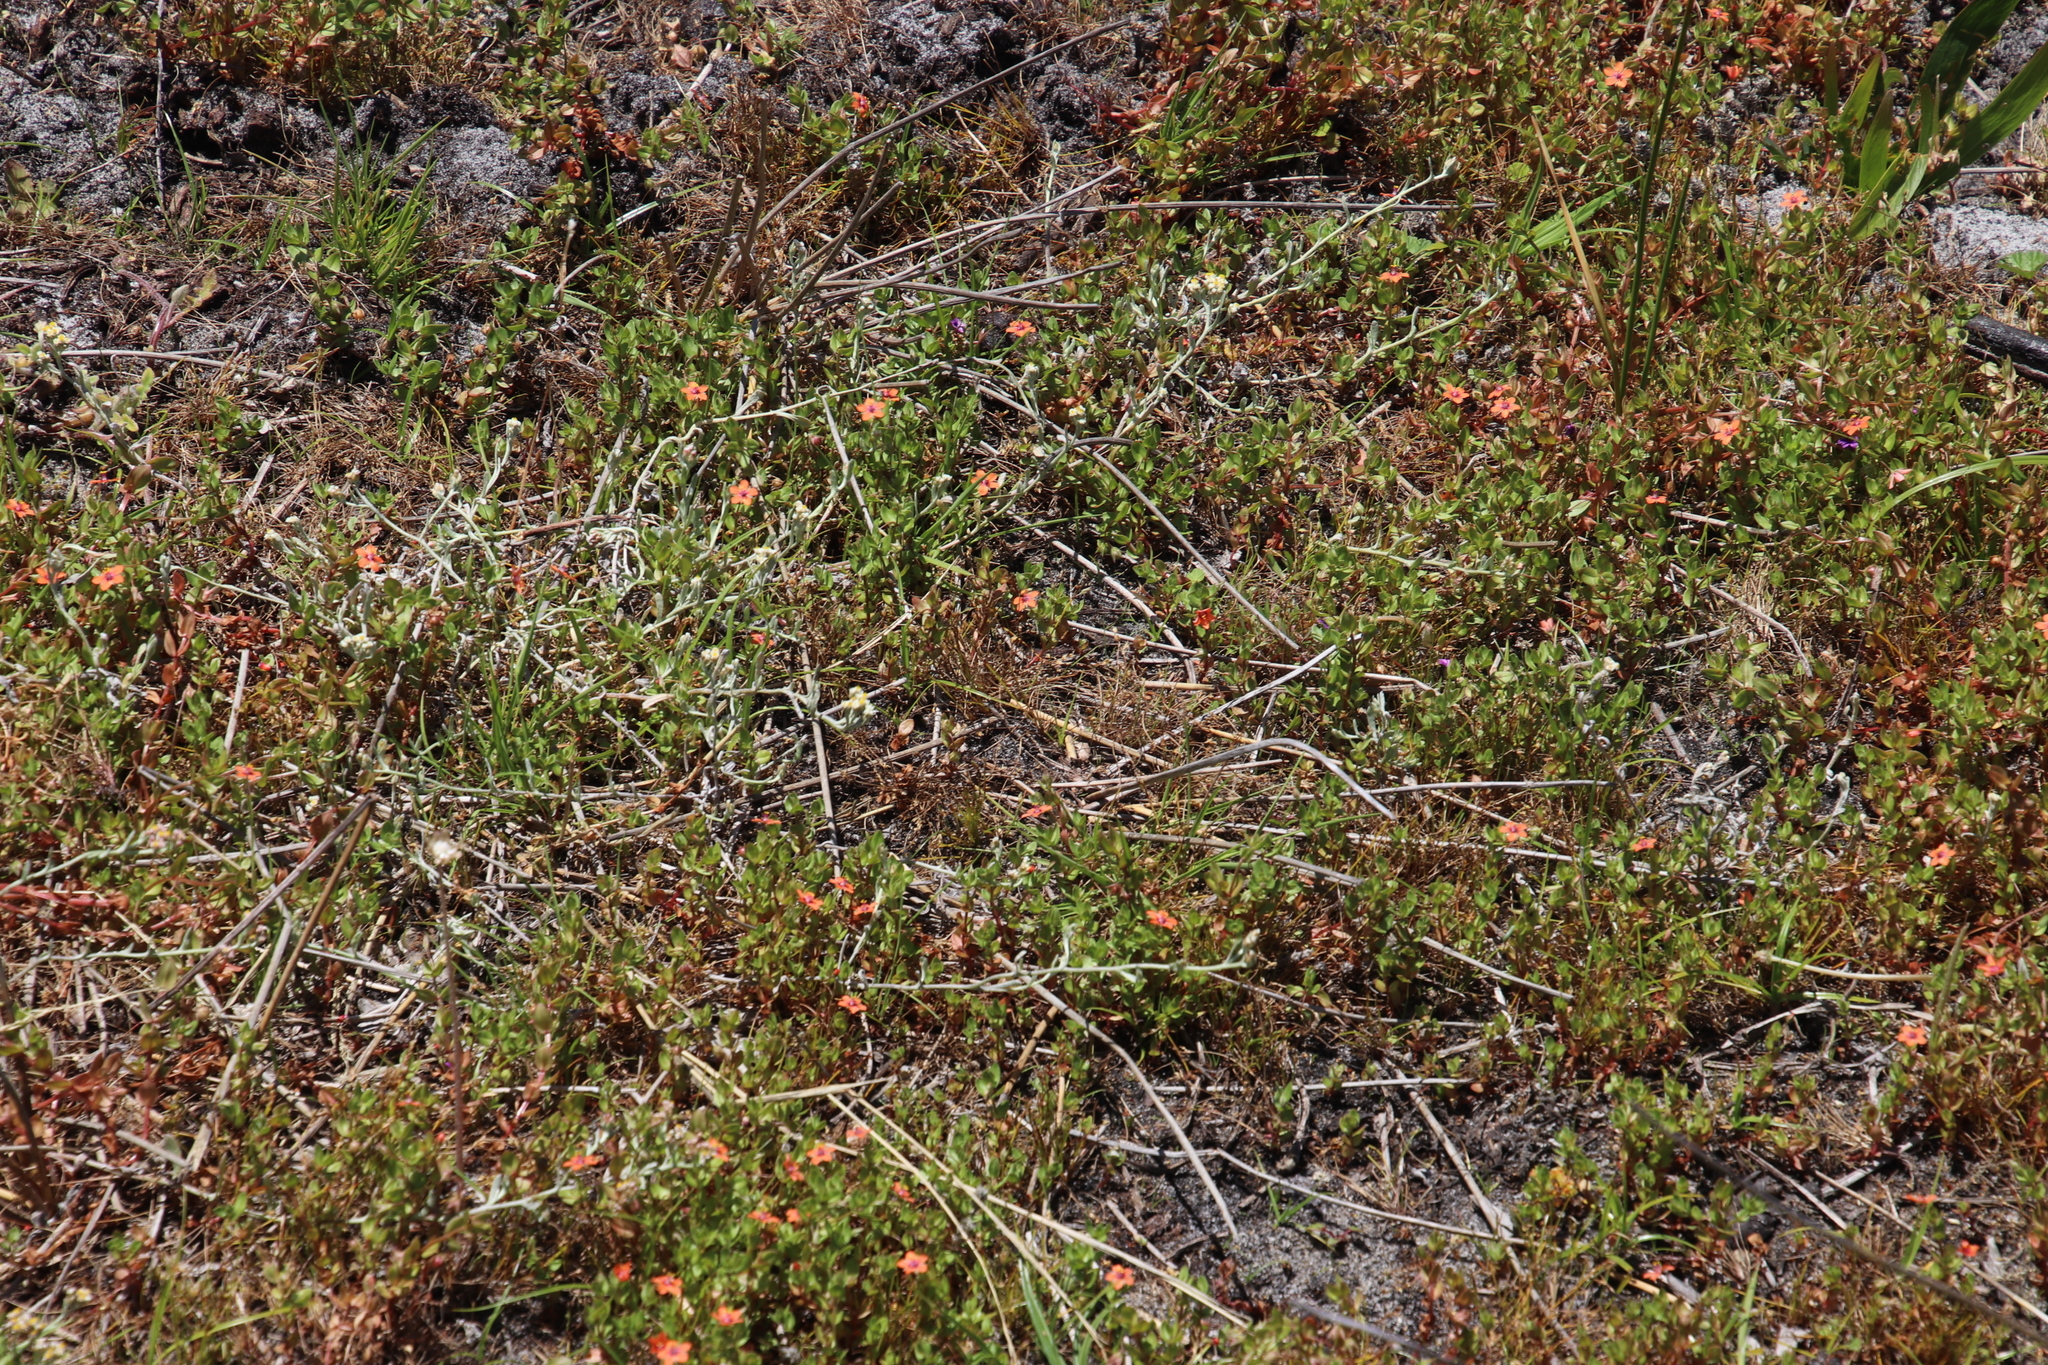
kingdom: Plantae
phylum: Tracheophyta
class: Magnoliopsida
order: Ericales
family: Primulaceae
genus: Lysimachia
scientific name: Lysimachia arvensis
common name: Scarlet pimpernel
